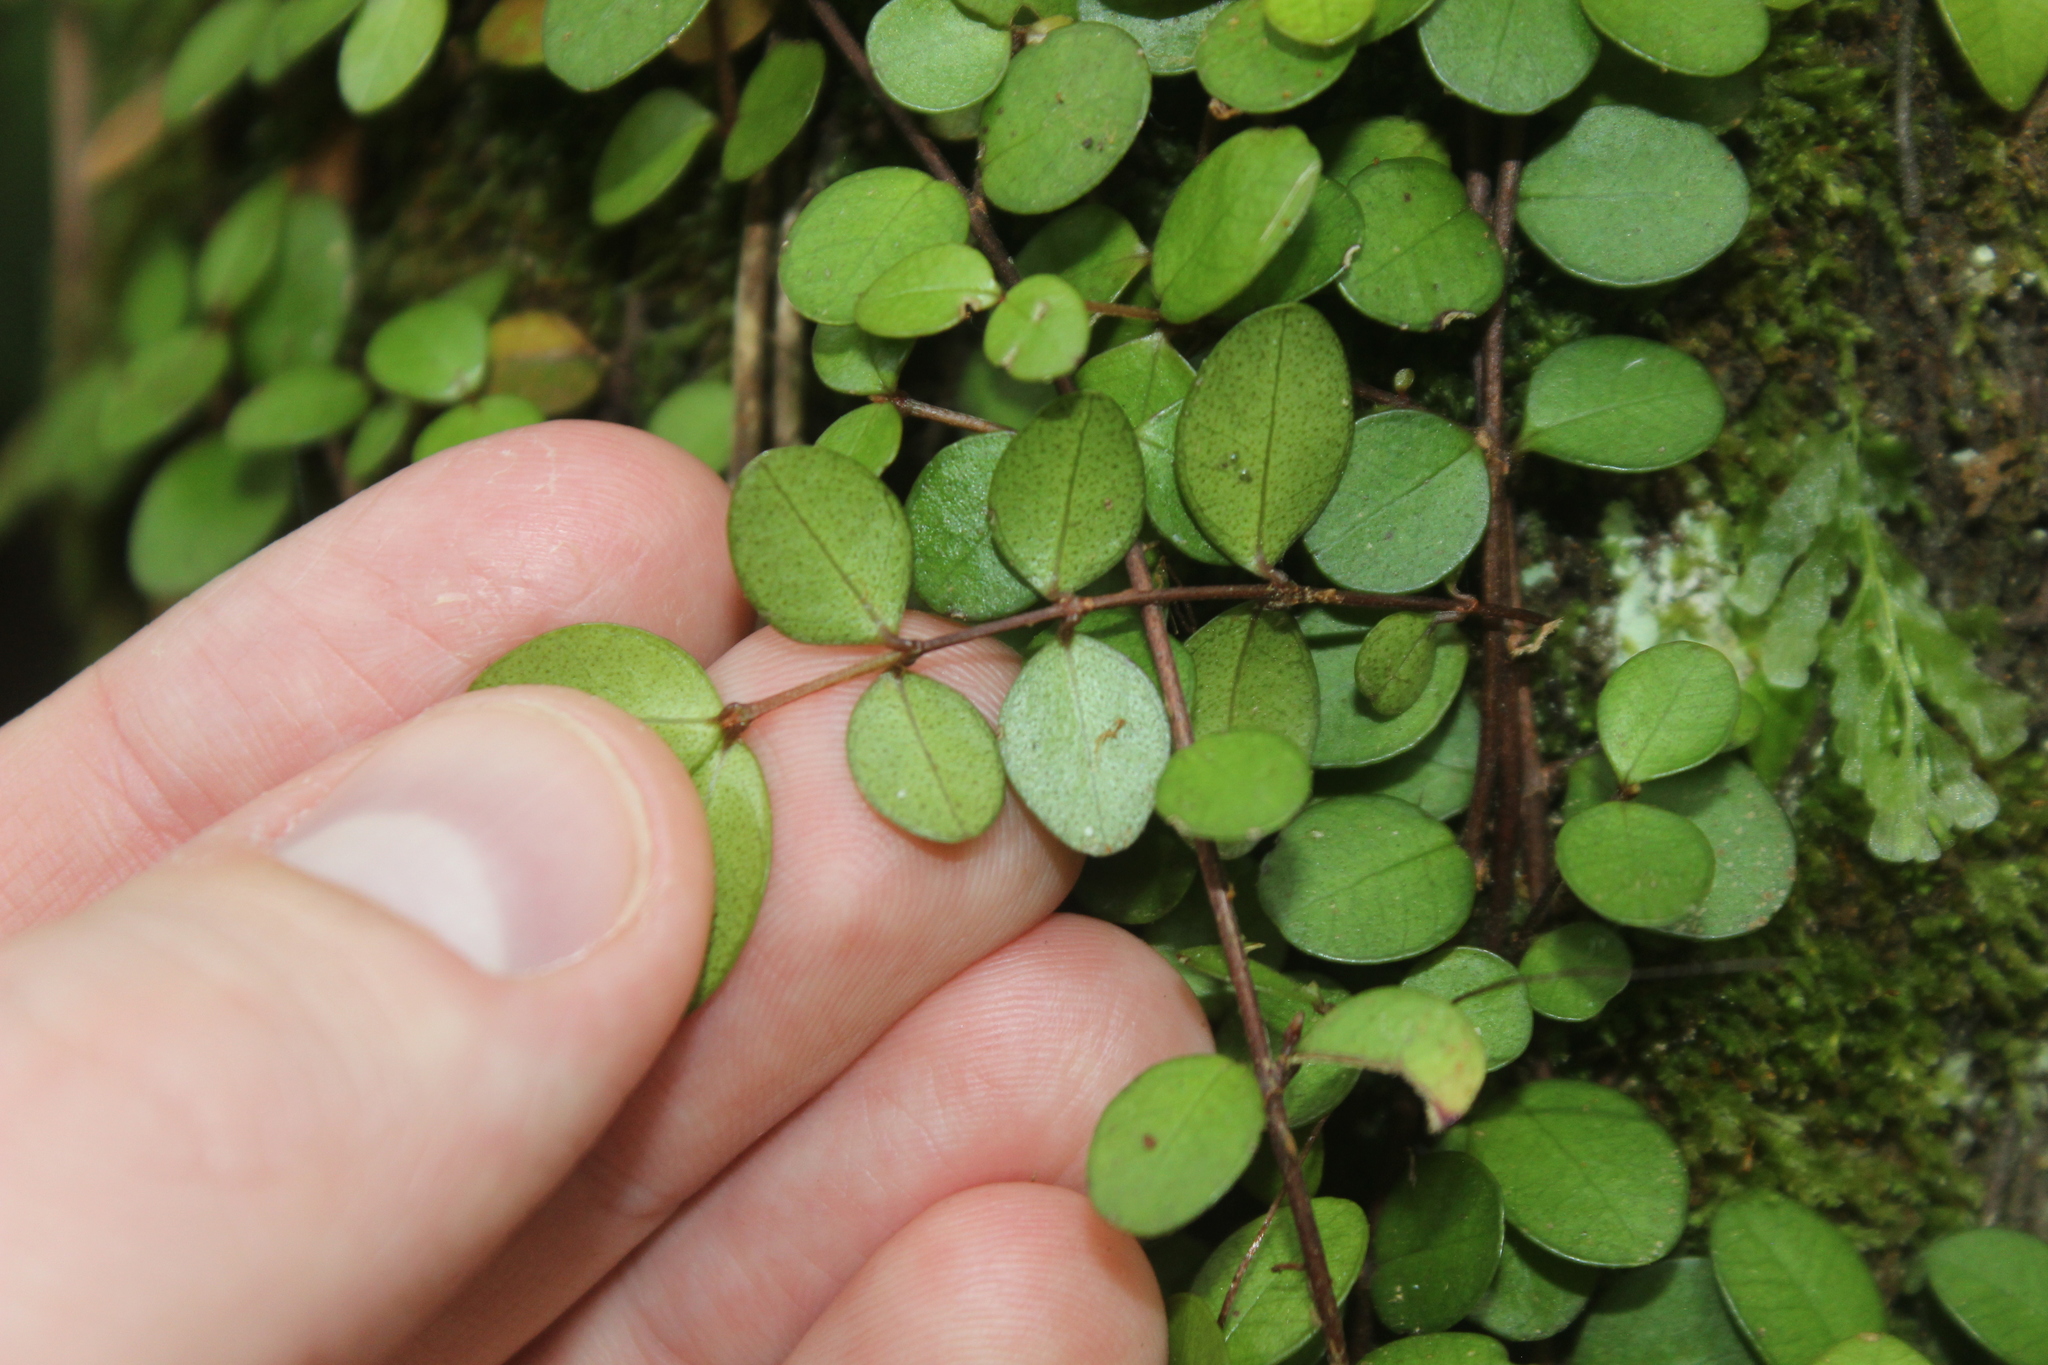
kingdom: Plantae
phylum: Tracheophyta
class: Magnoliopsida
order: Myrtales
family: Myrtaceae
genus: Metrosideros
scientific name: Metrosideros perforata
